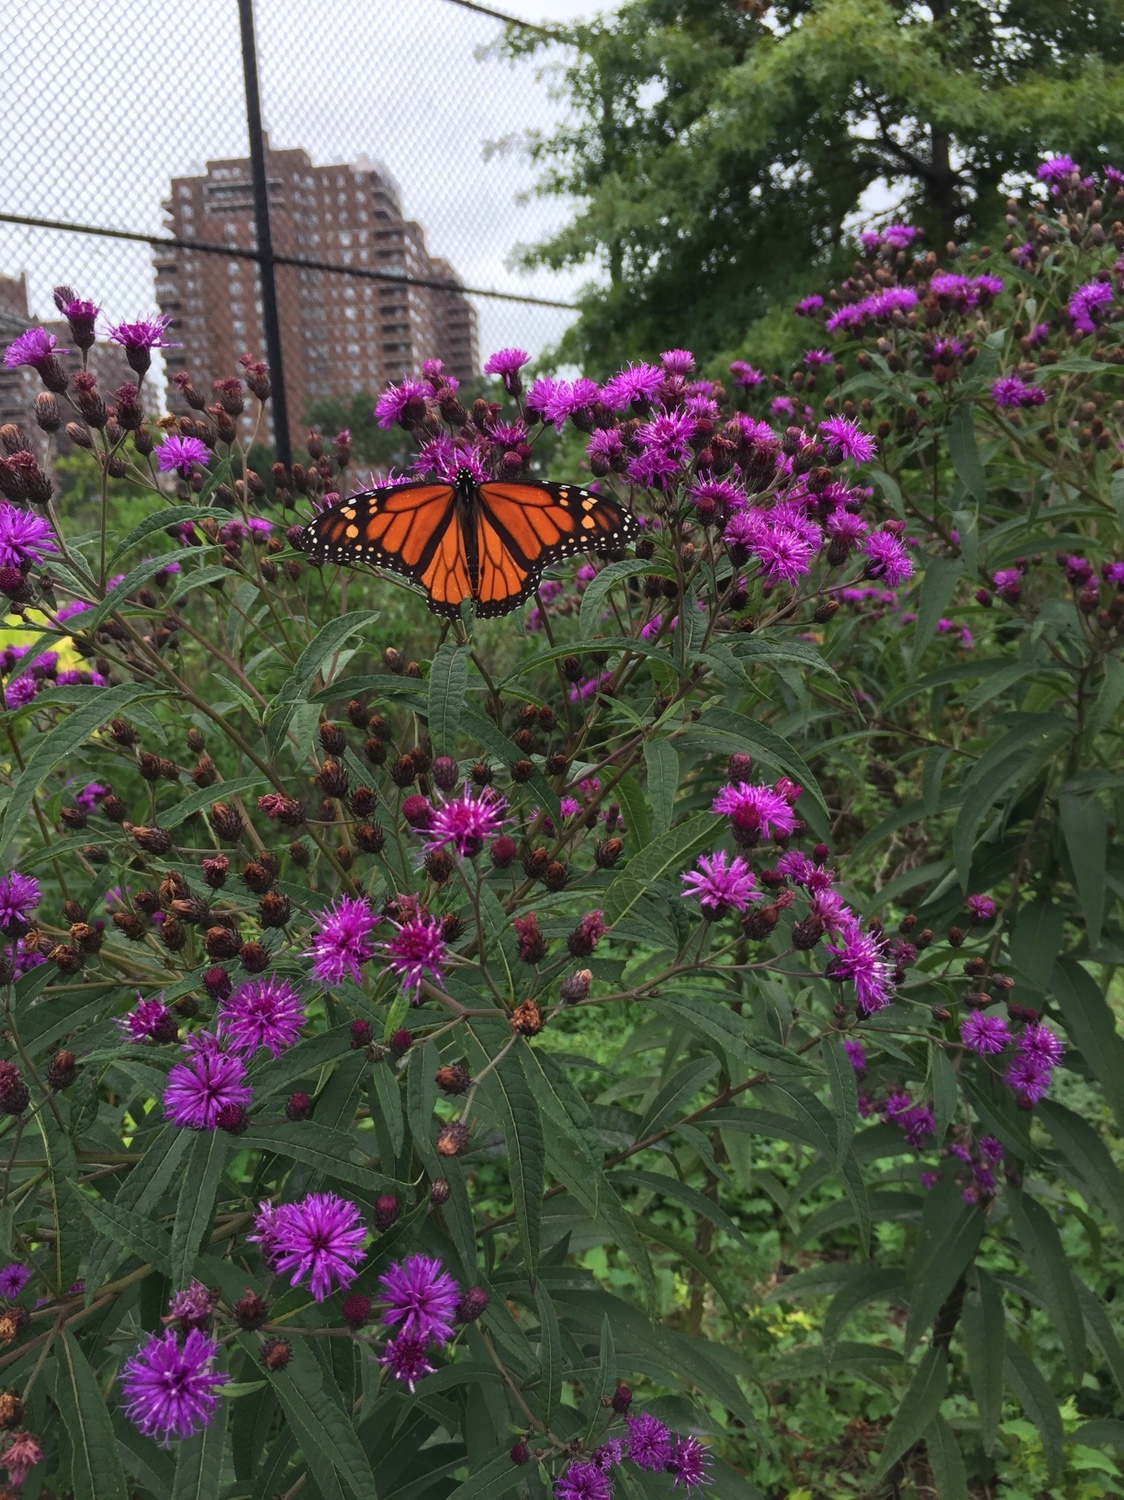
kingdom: Animalia
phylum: Arthropoda
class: Insecta
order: Lepidoptera
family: Nymphalidae
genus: Danaus
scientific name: Danaus plexippus
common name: Monarch
